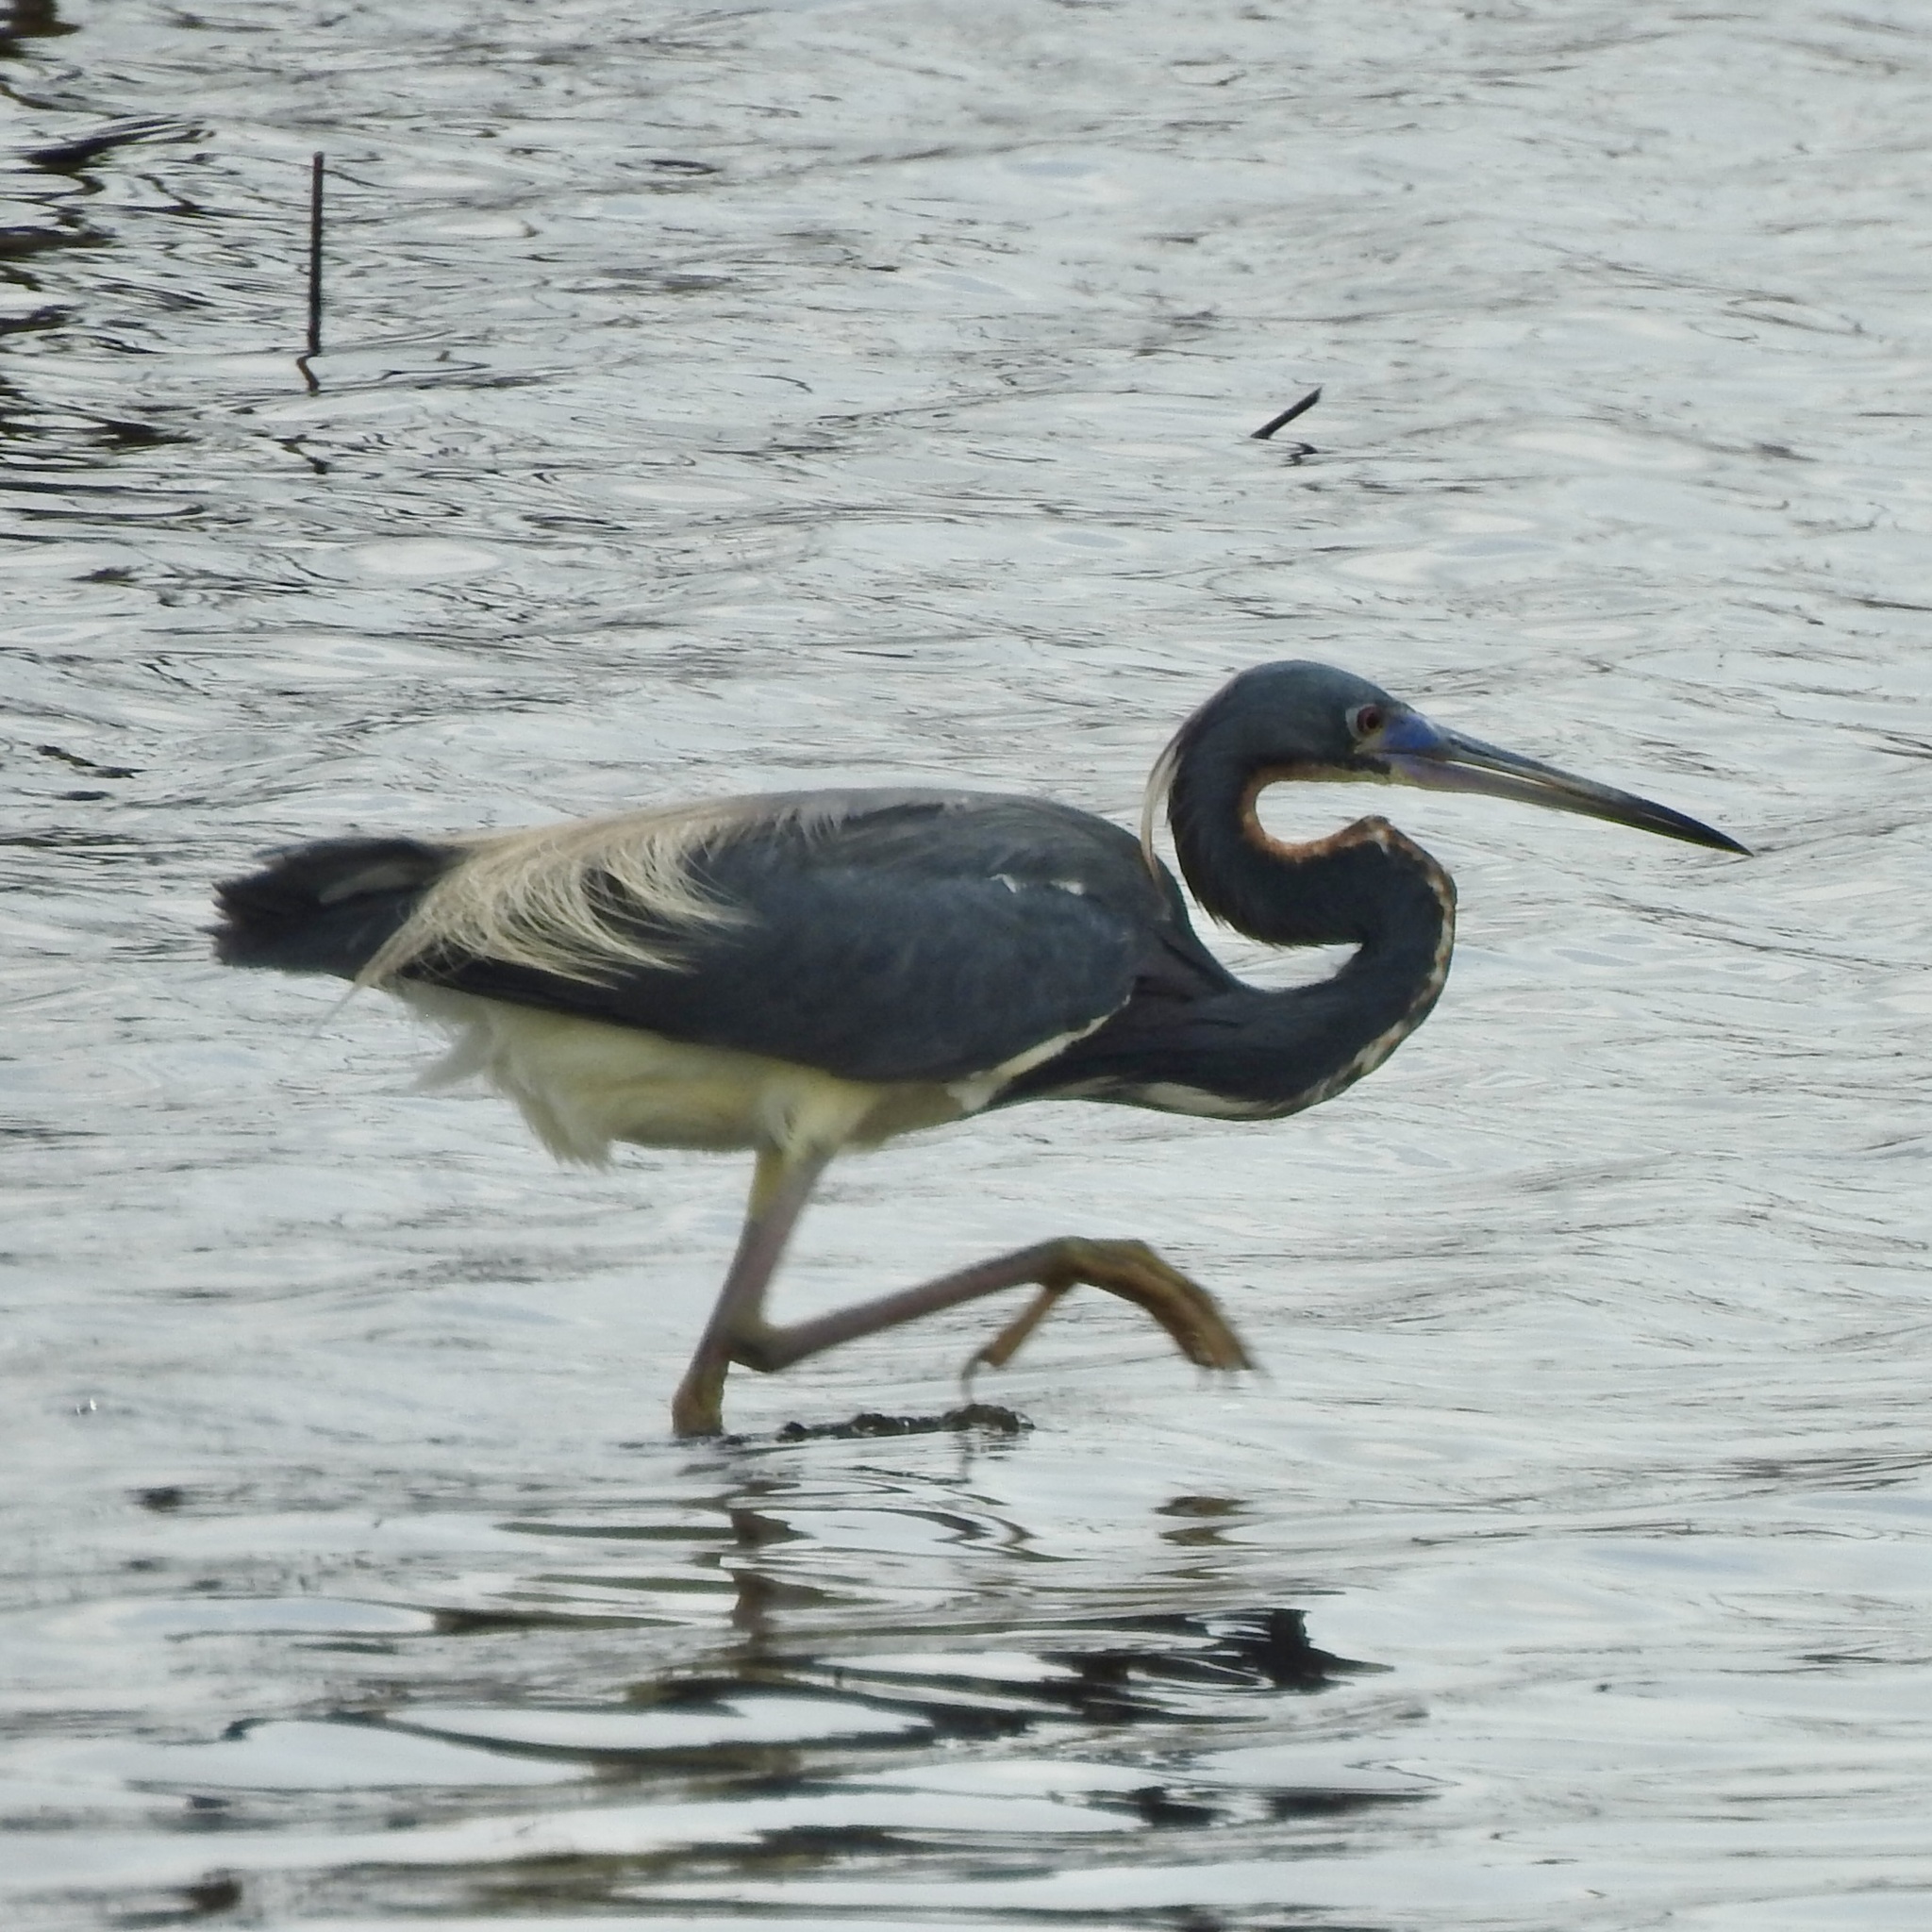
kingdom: Animalia
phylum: Chordata
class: Aves
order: Pelecaniformes
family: Ardeidae
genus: Egretta
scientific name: Egretta tricolor
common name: Tricolored heron
